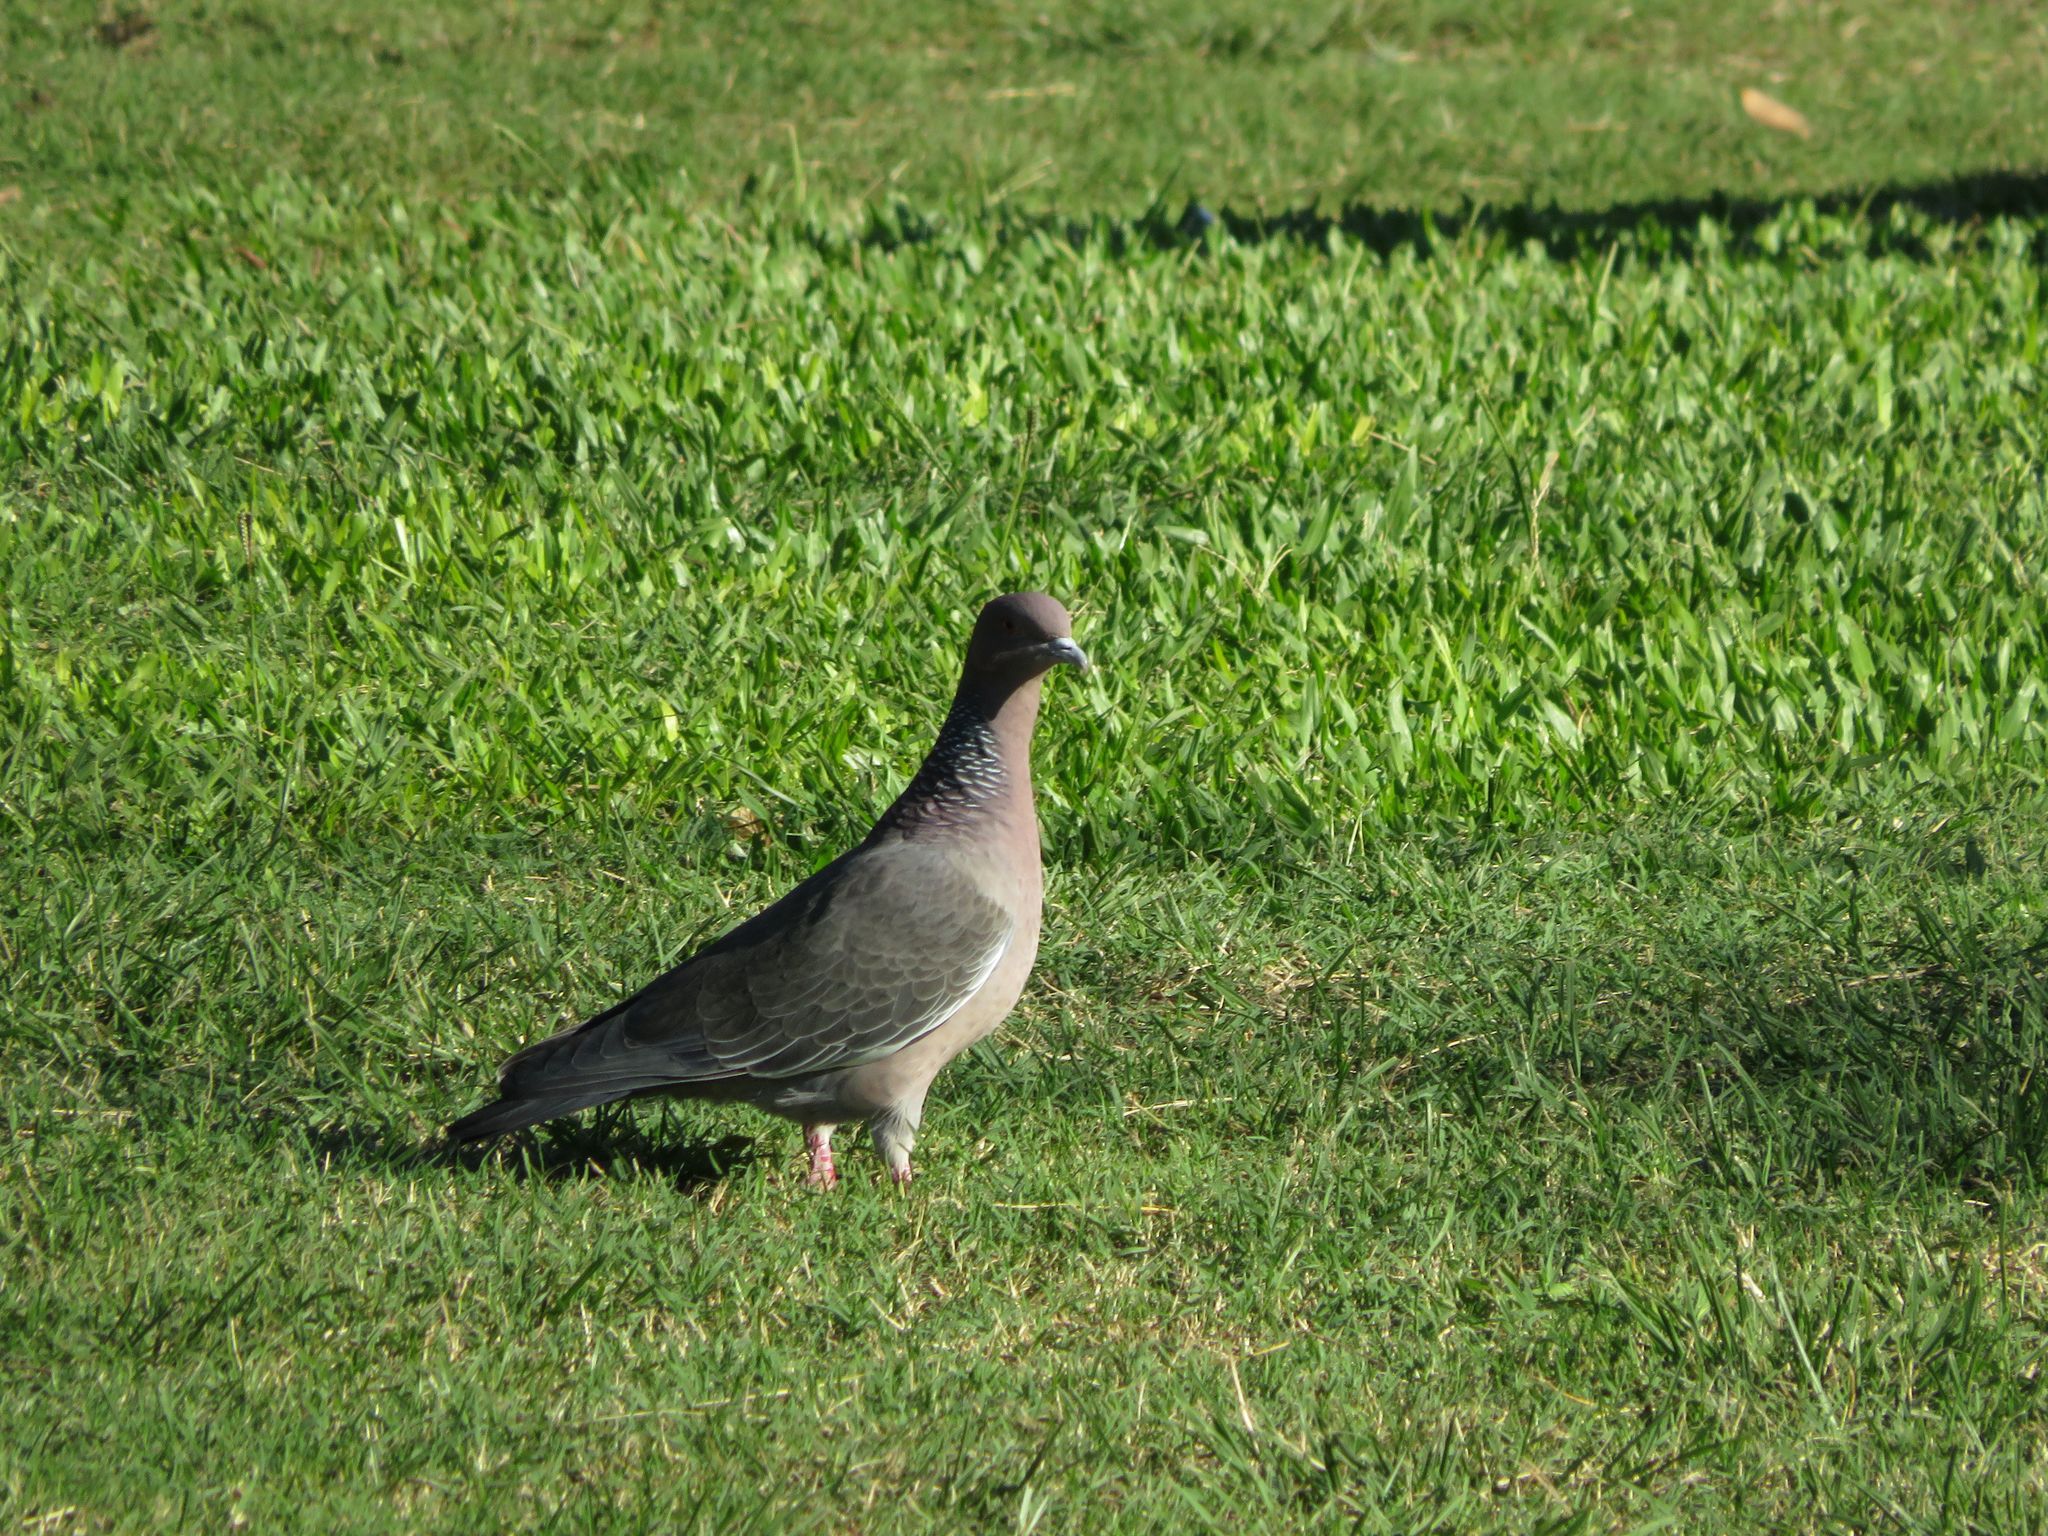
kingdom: Animalia
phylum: Chordata
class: Aves
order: Columbiformes
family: Columbidae
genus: Patagioenas
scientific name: Patagioenas picazuro
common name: Picazuro pigeon
